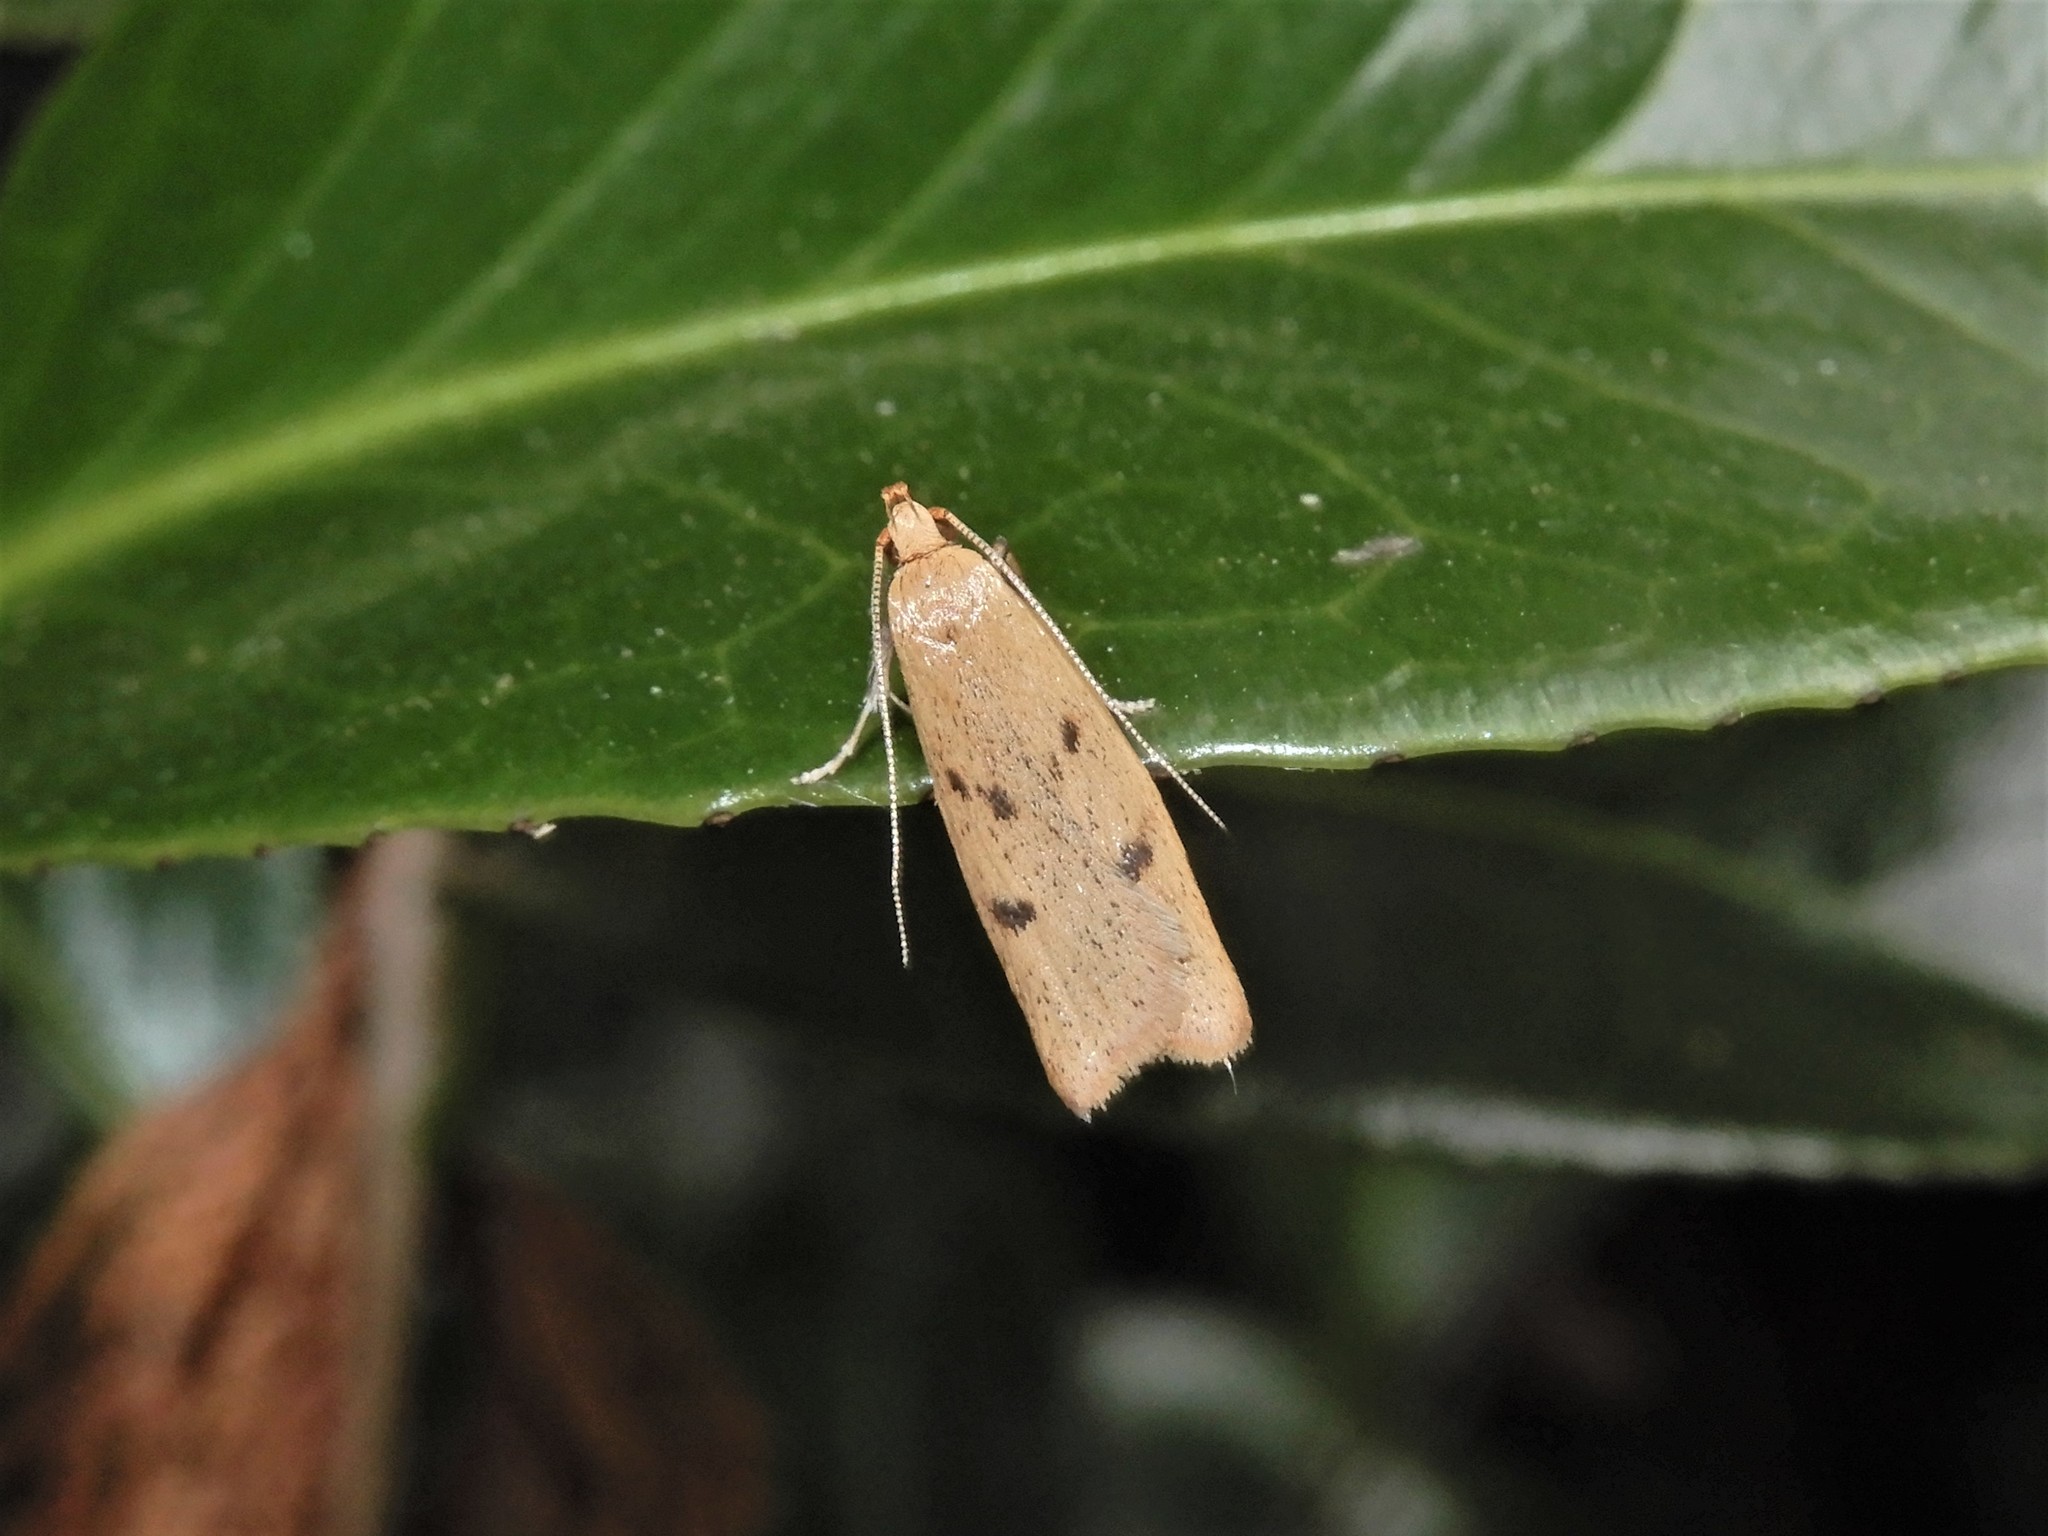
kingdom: Animalia
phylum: Arthropoda
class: Insecta
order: Lepidoptera
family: Oecophoridae
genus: Gymnobathra
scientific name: Gymnobathra sarcoxantha
